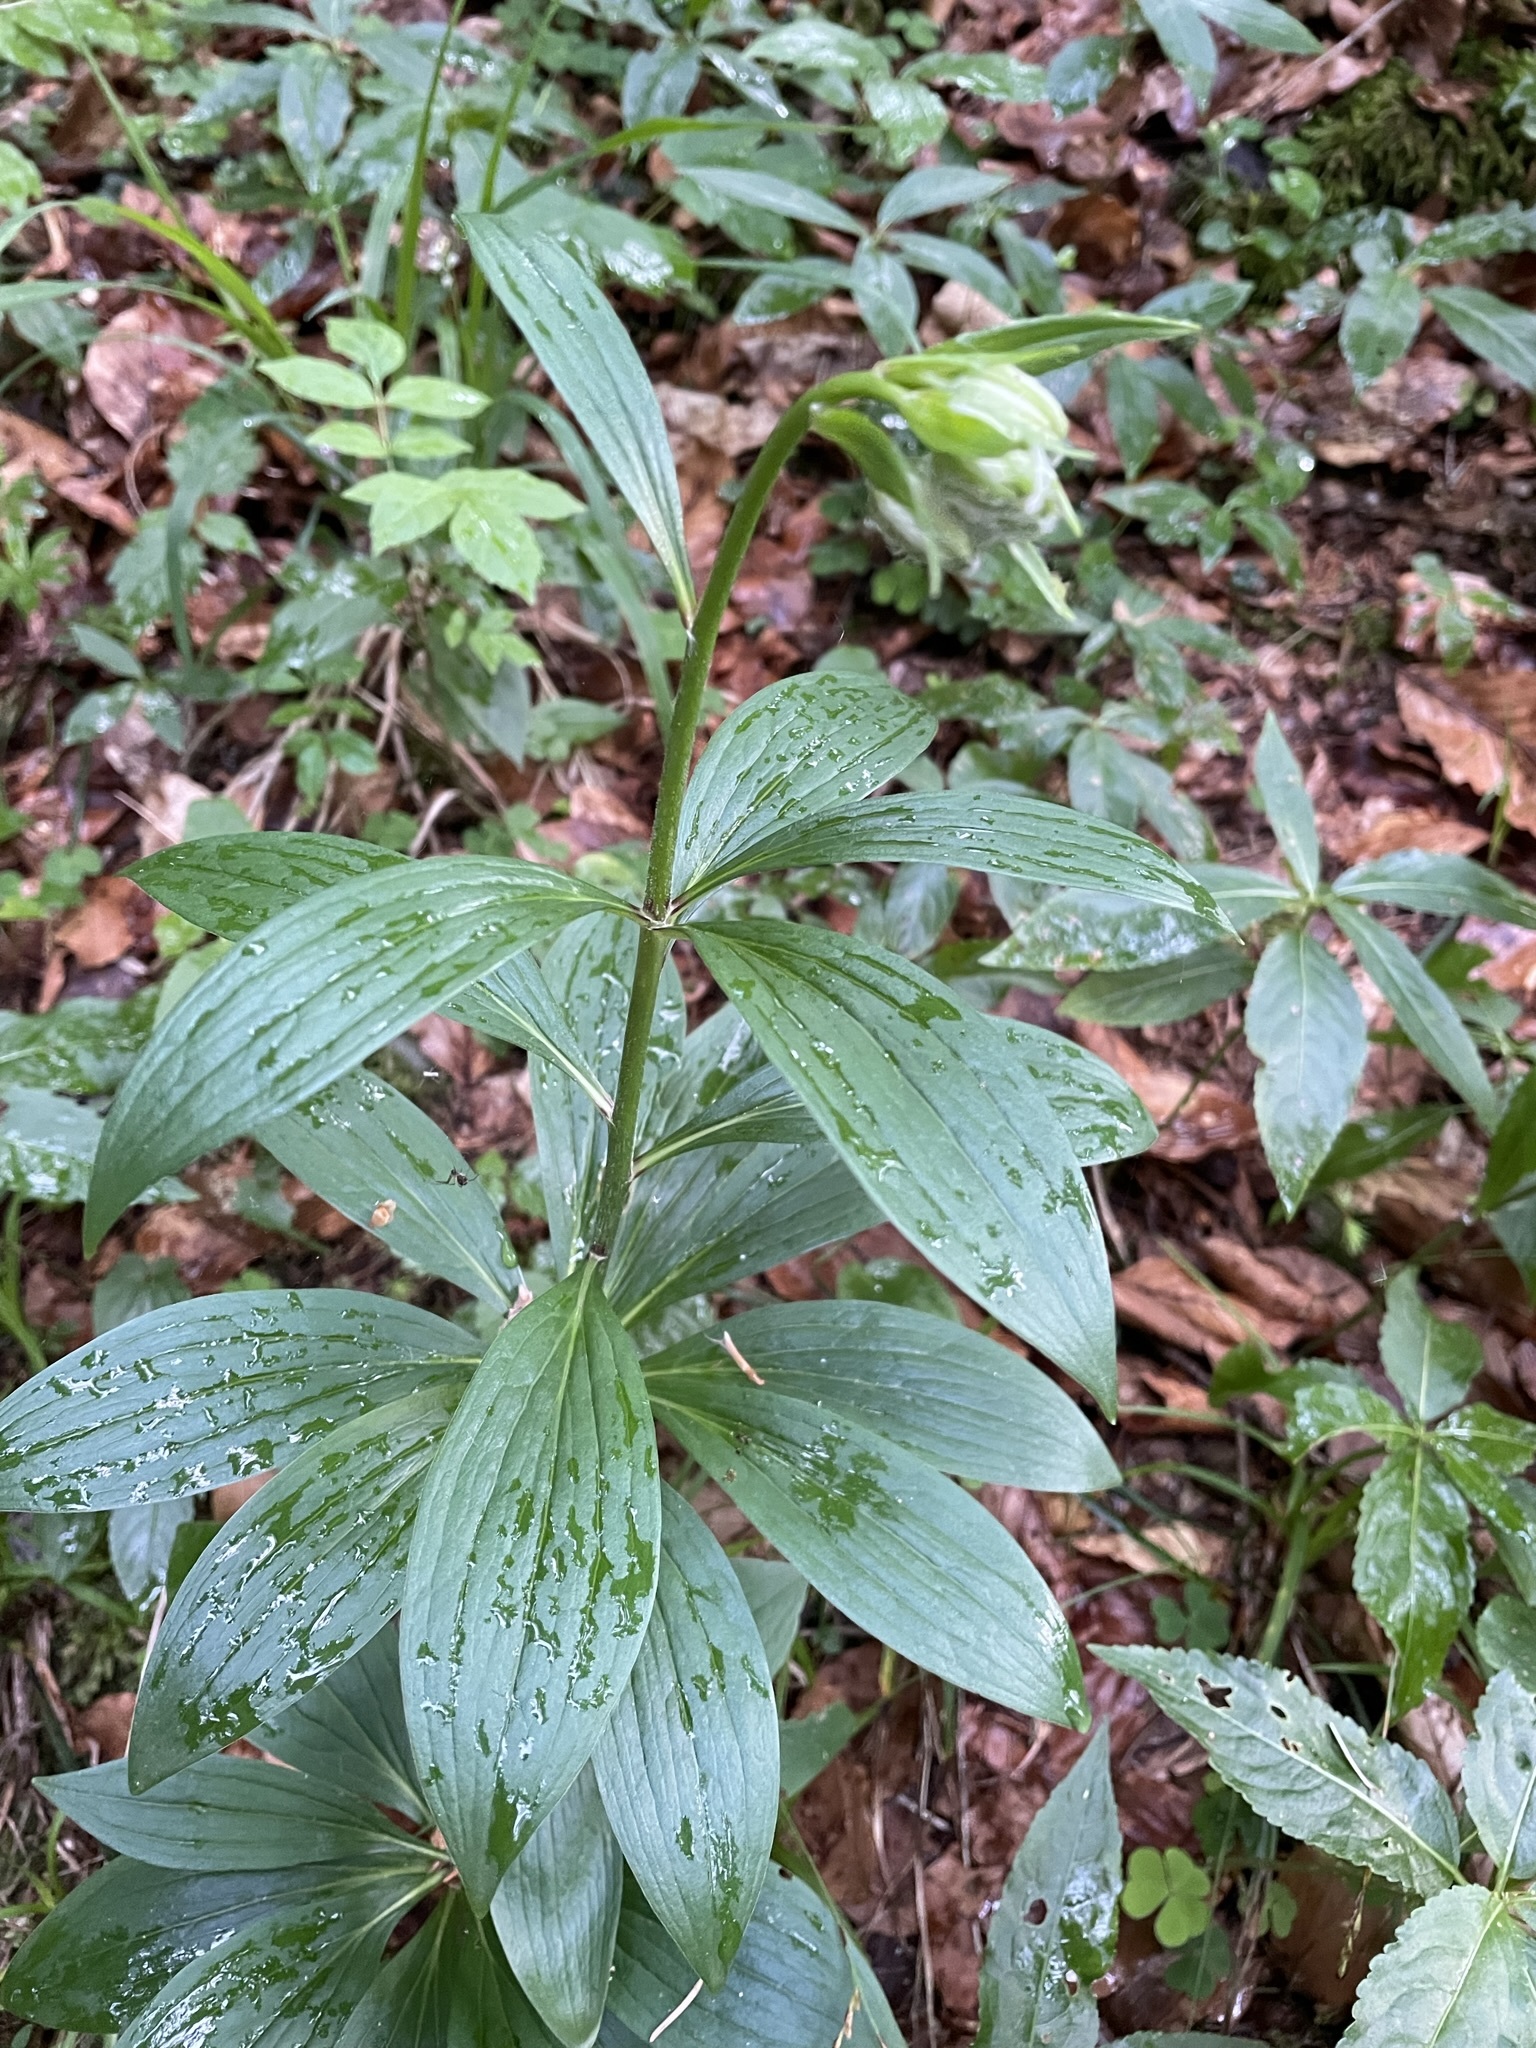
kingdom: Plantae
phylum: Tracheophyta
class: Liliopsida
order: Liliales
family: Liliaceae
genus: Lilium
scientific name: Lilium martagon
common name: Martagon lily
